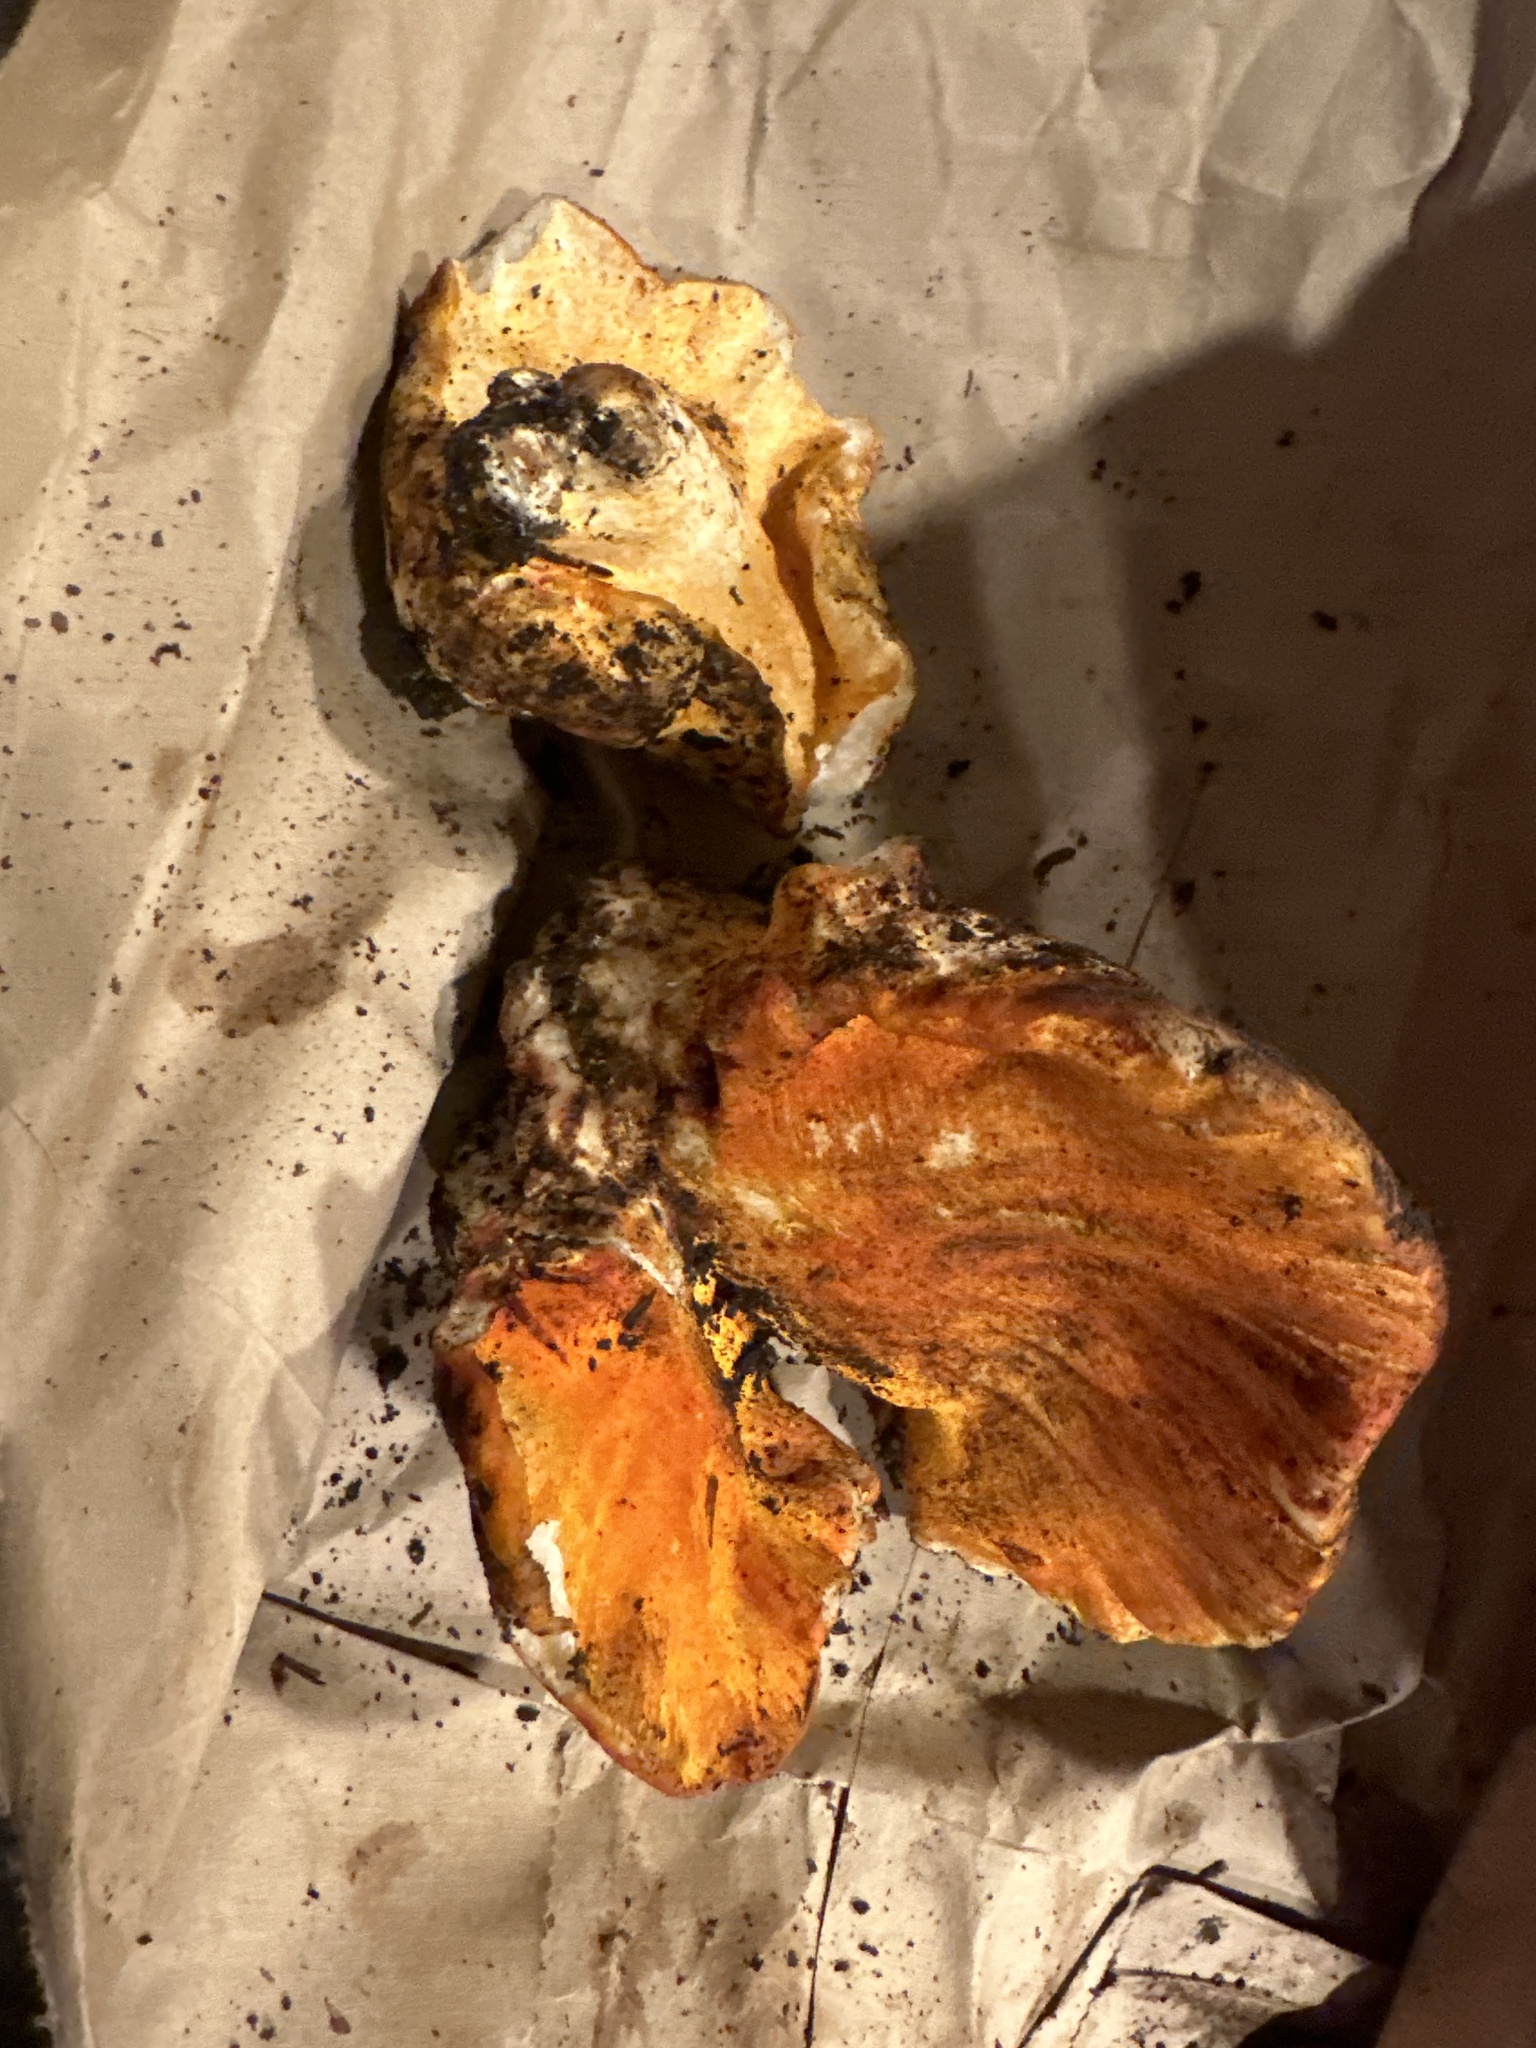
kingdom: Fungi
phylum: Ascomycota
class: Sordariomycetes
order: Hypocreales
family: Hypocreaceae
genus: Hypomyces
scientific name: Hypomyces lactifluorum
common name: Lobster mushroom
